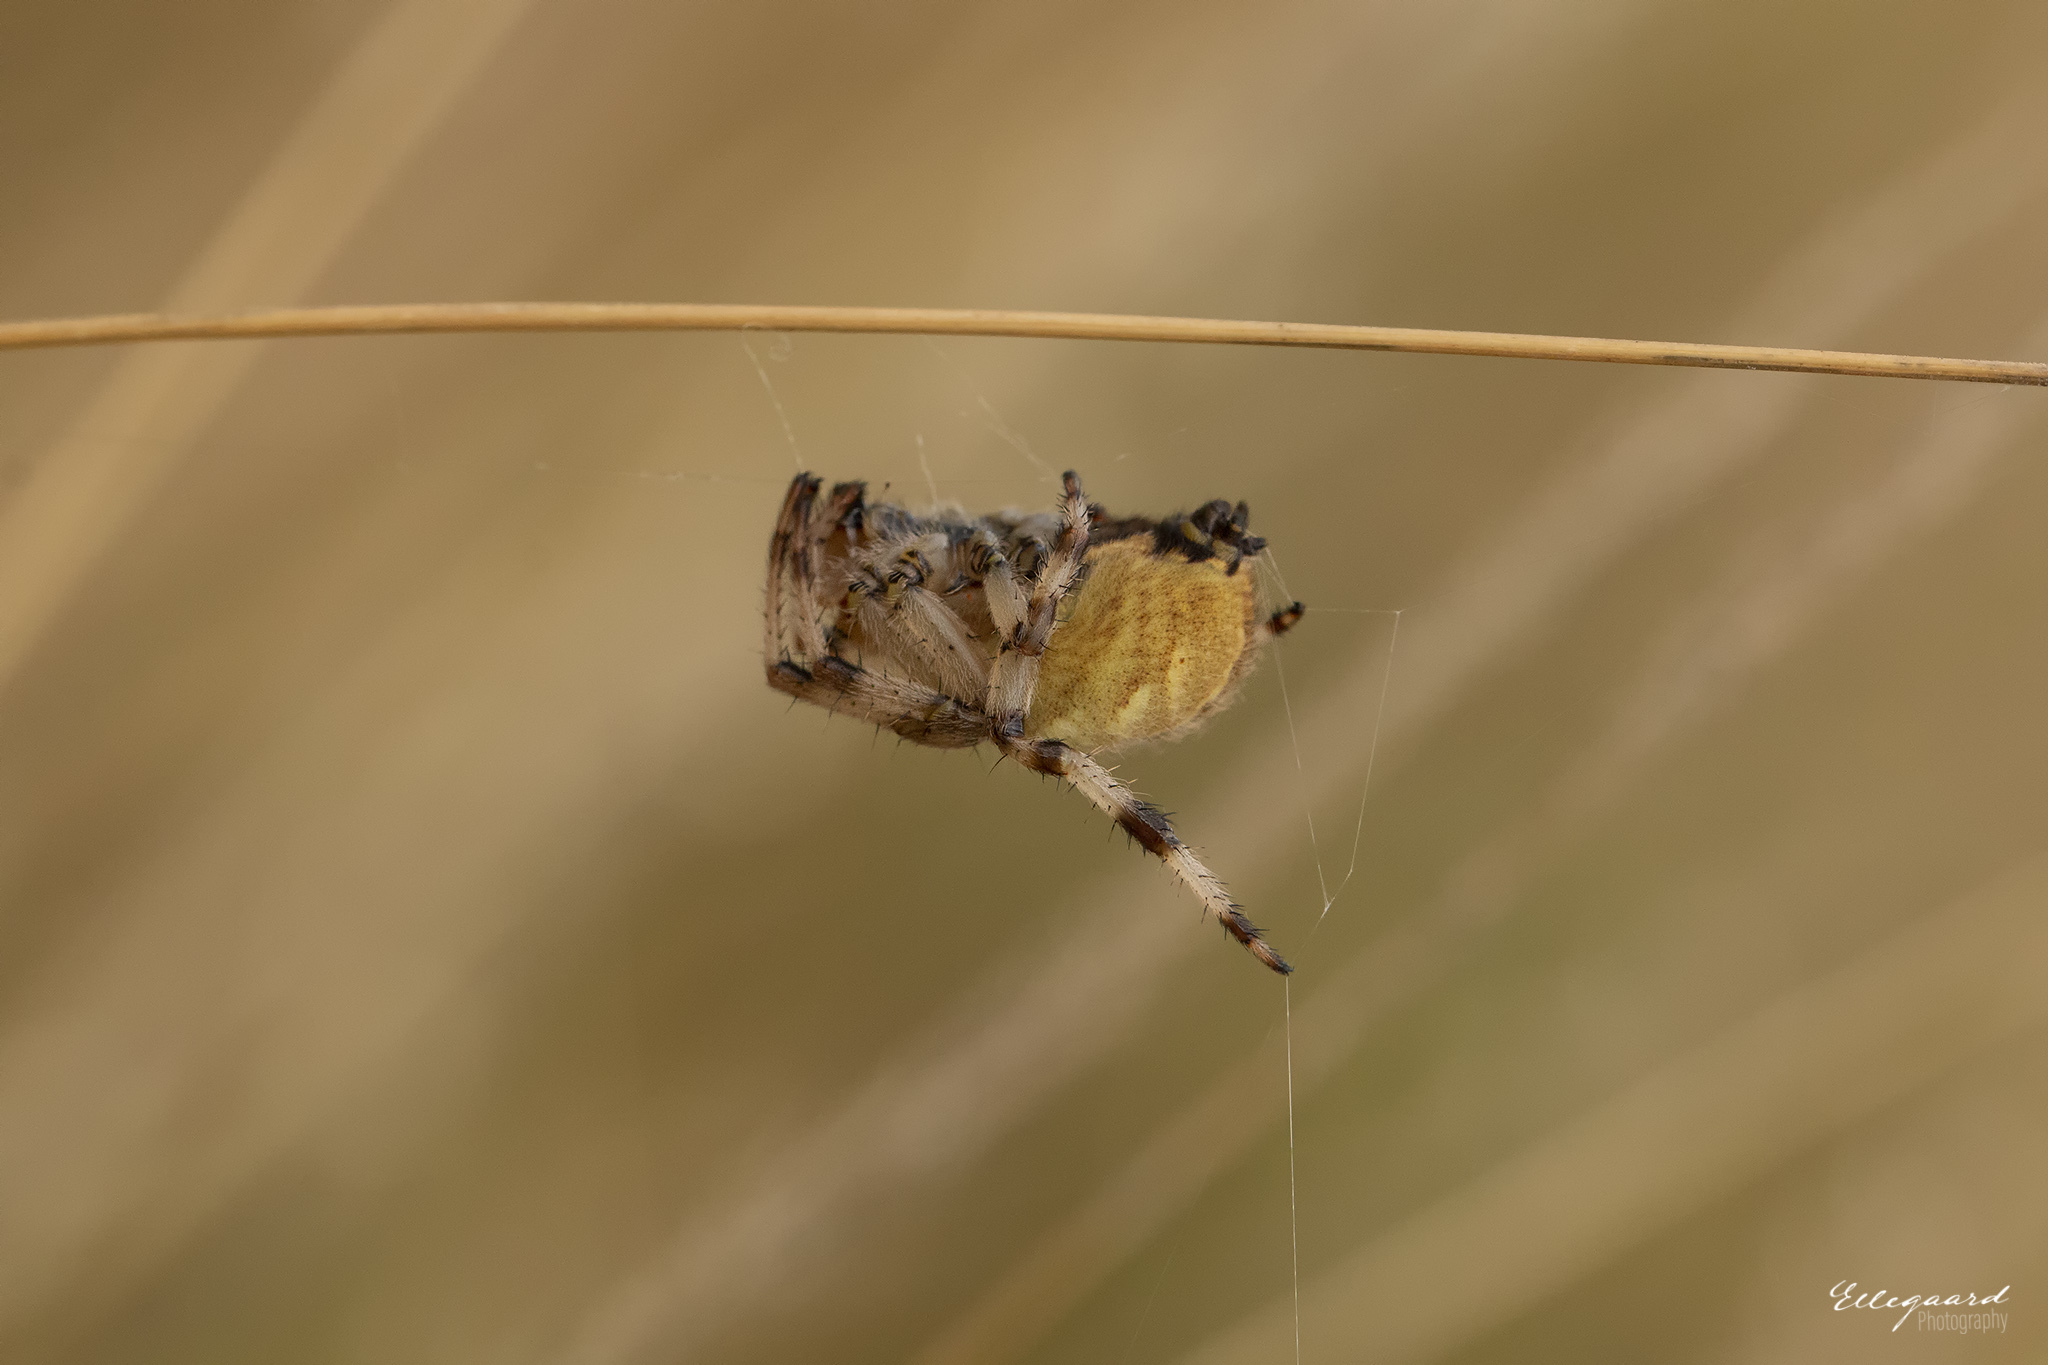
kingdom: Animalia
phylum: Arthropoda
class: Arachnida
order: Araneae
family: Araneidae
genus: Araneus
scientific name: Araneus quadratus
